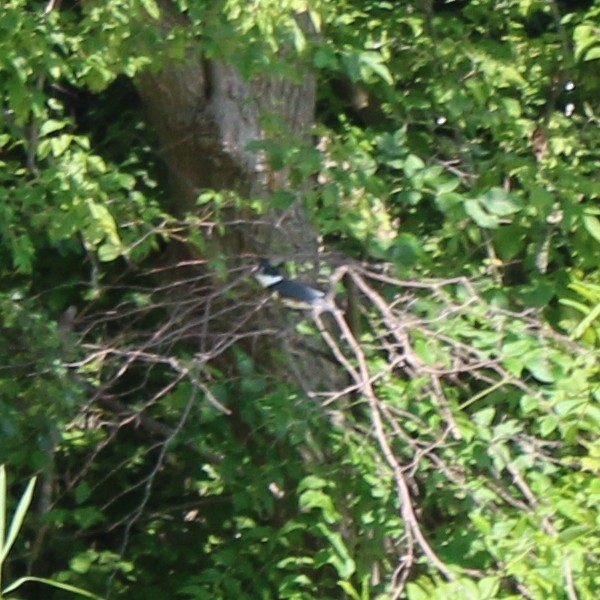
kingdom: Animalia
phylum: Chordata
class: Aves
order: Coraciiformes
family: Alcedinidae
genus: Megaceryle
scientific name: Megaceryle alcyon
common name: Belted kingfisher
